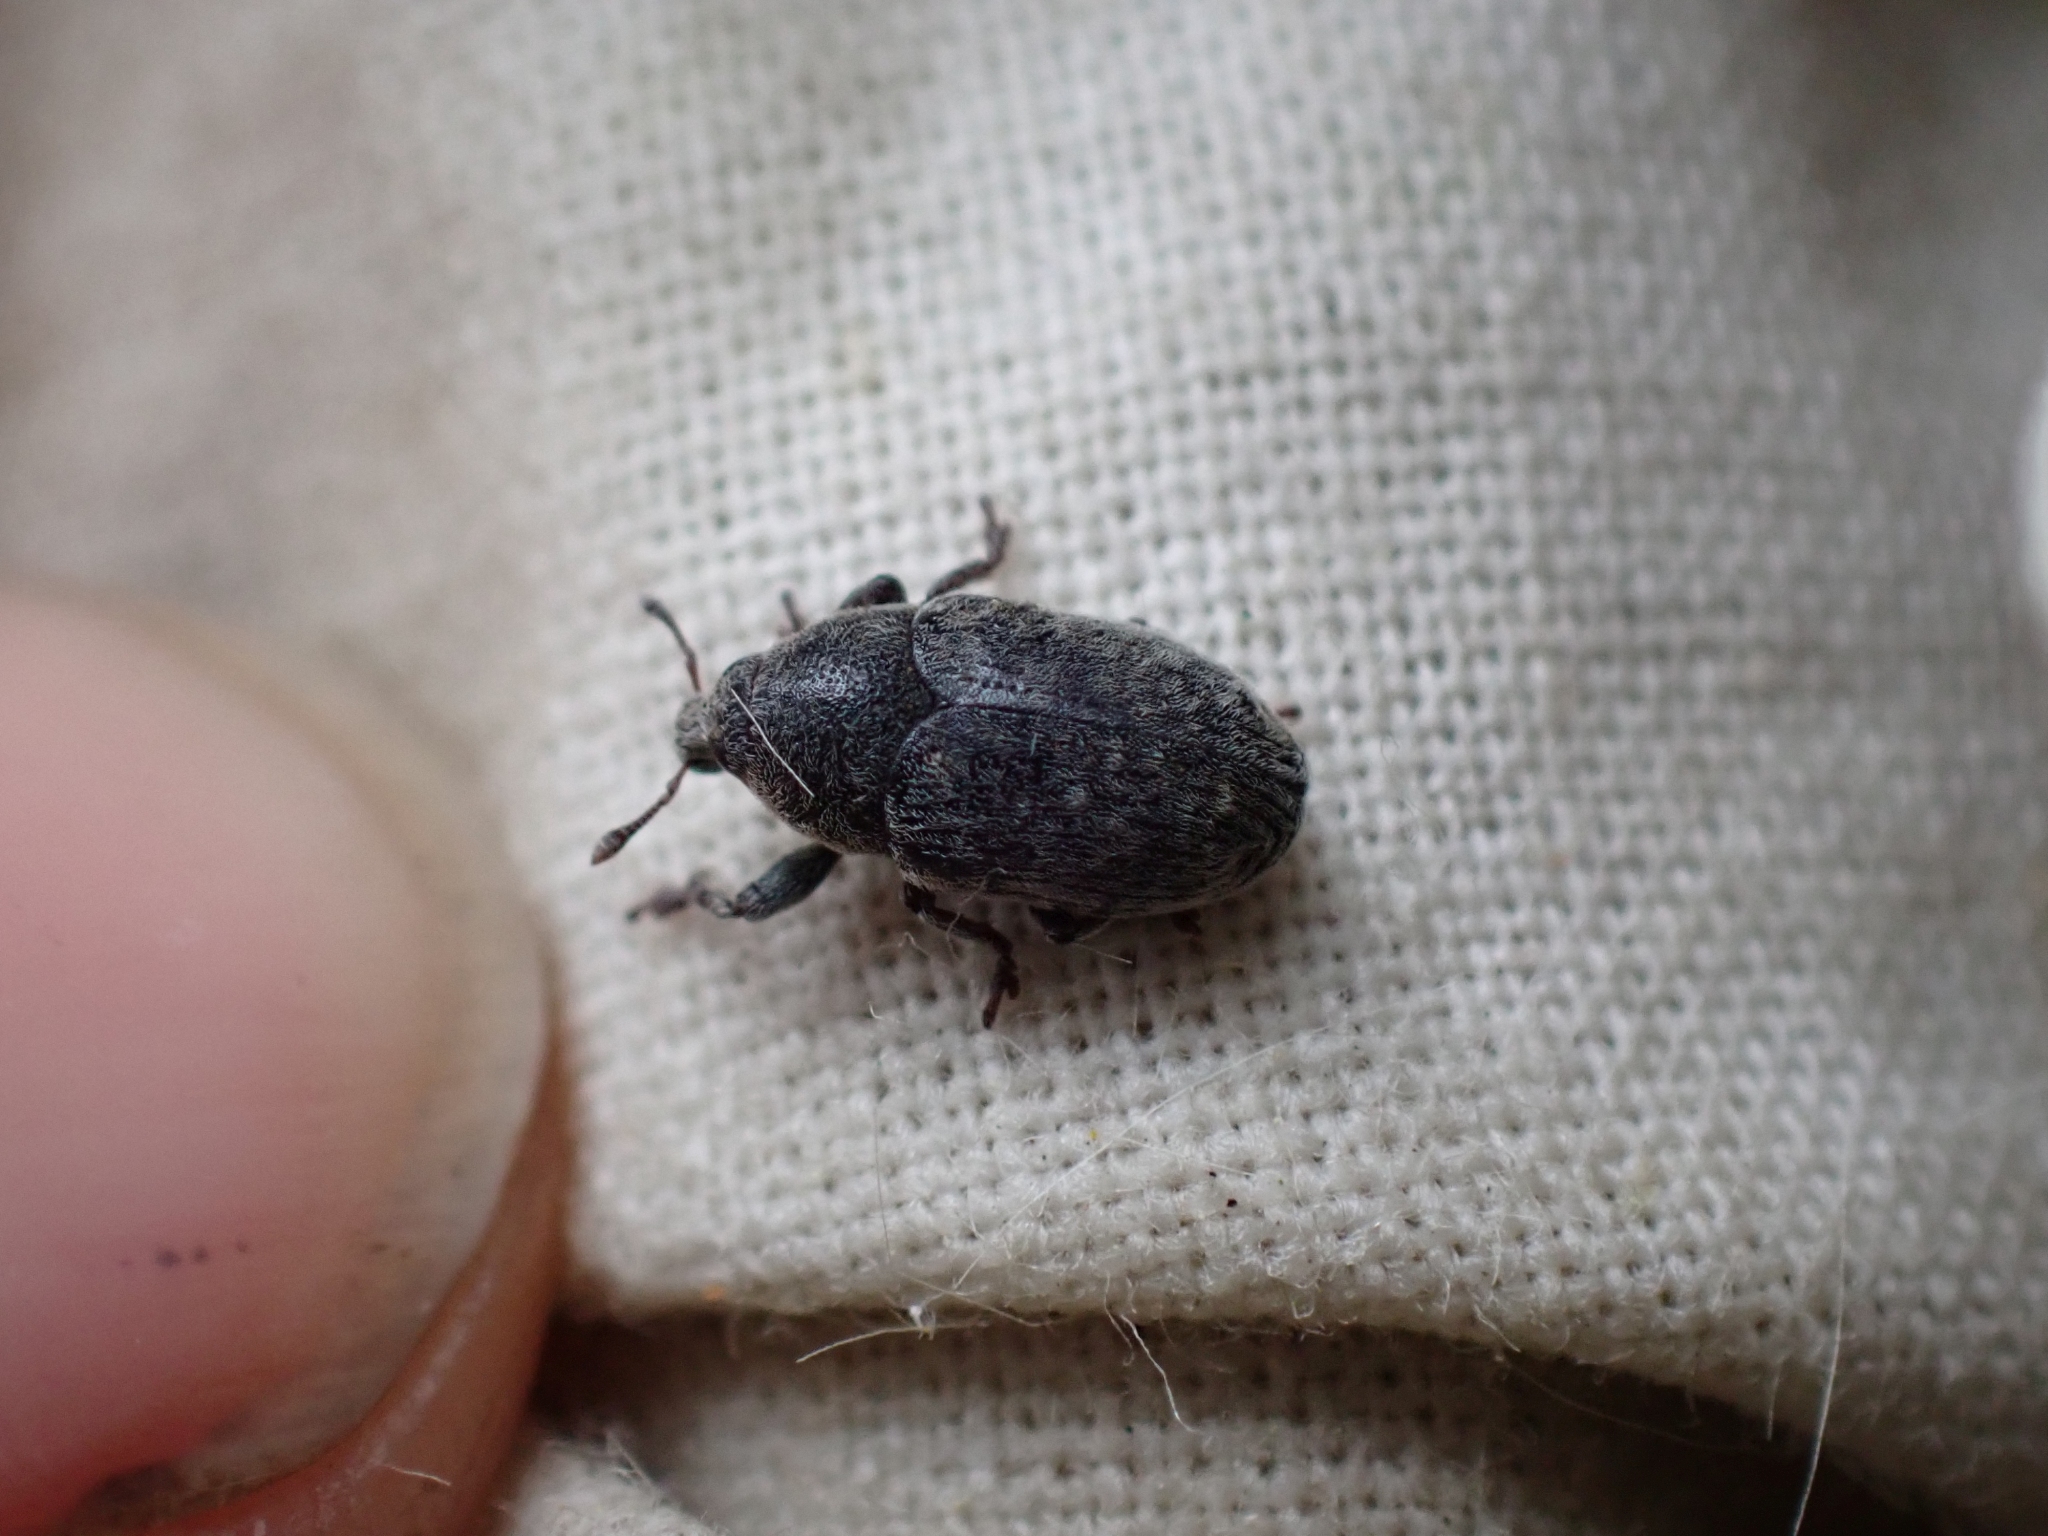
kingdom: Animalia
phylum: Arthropoda
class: Insecta
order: Coleoptera
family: Curculionidae
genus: Larinus
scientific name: Larinus minutus
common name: Weevil
